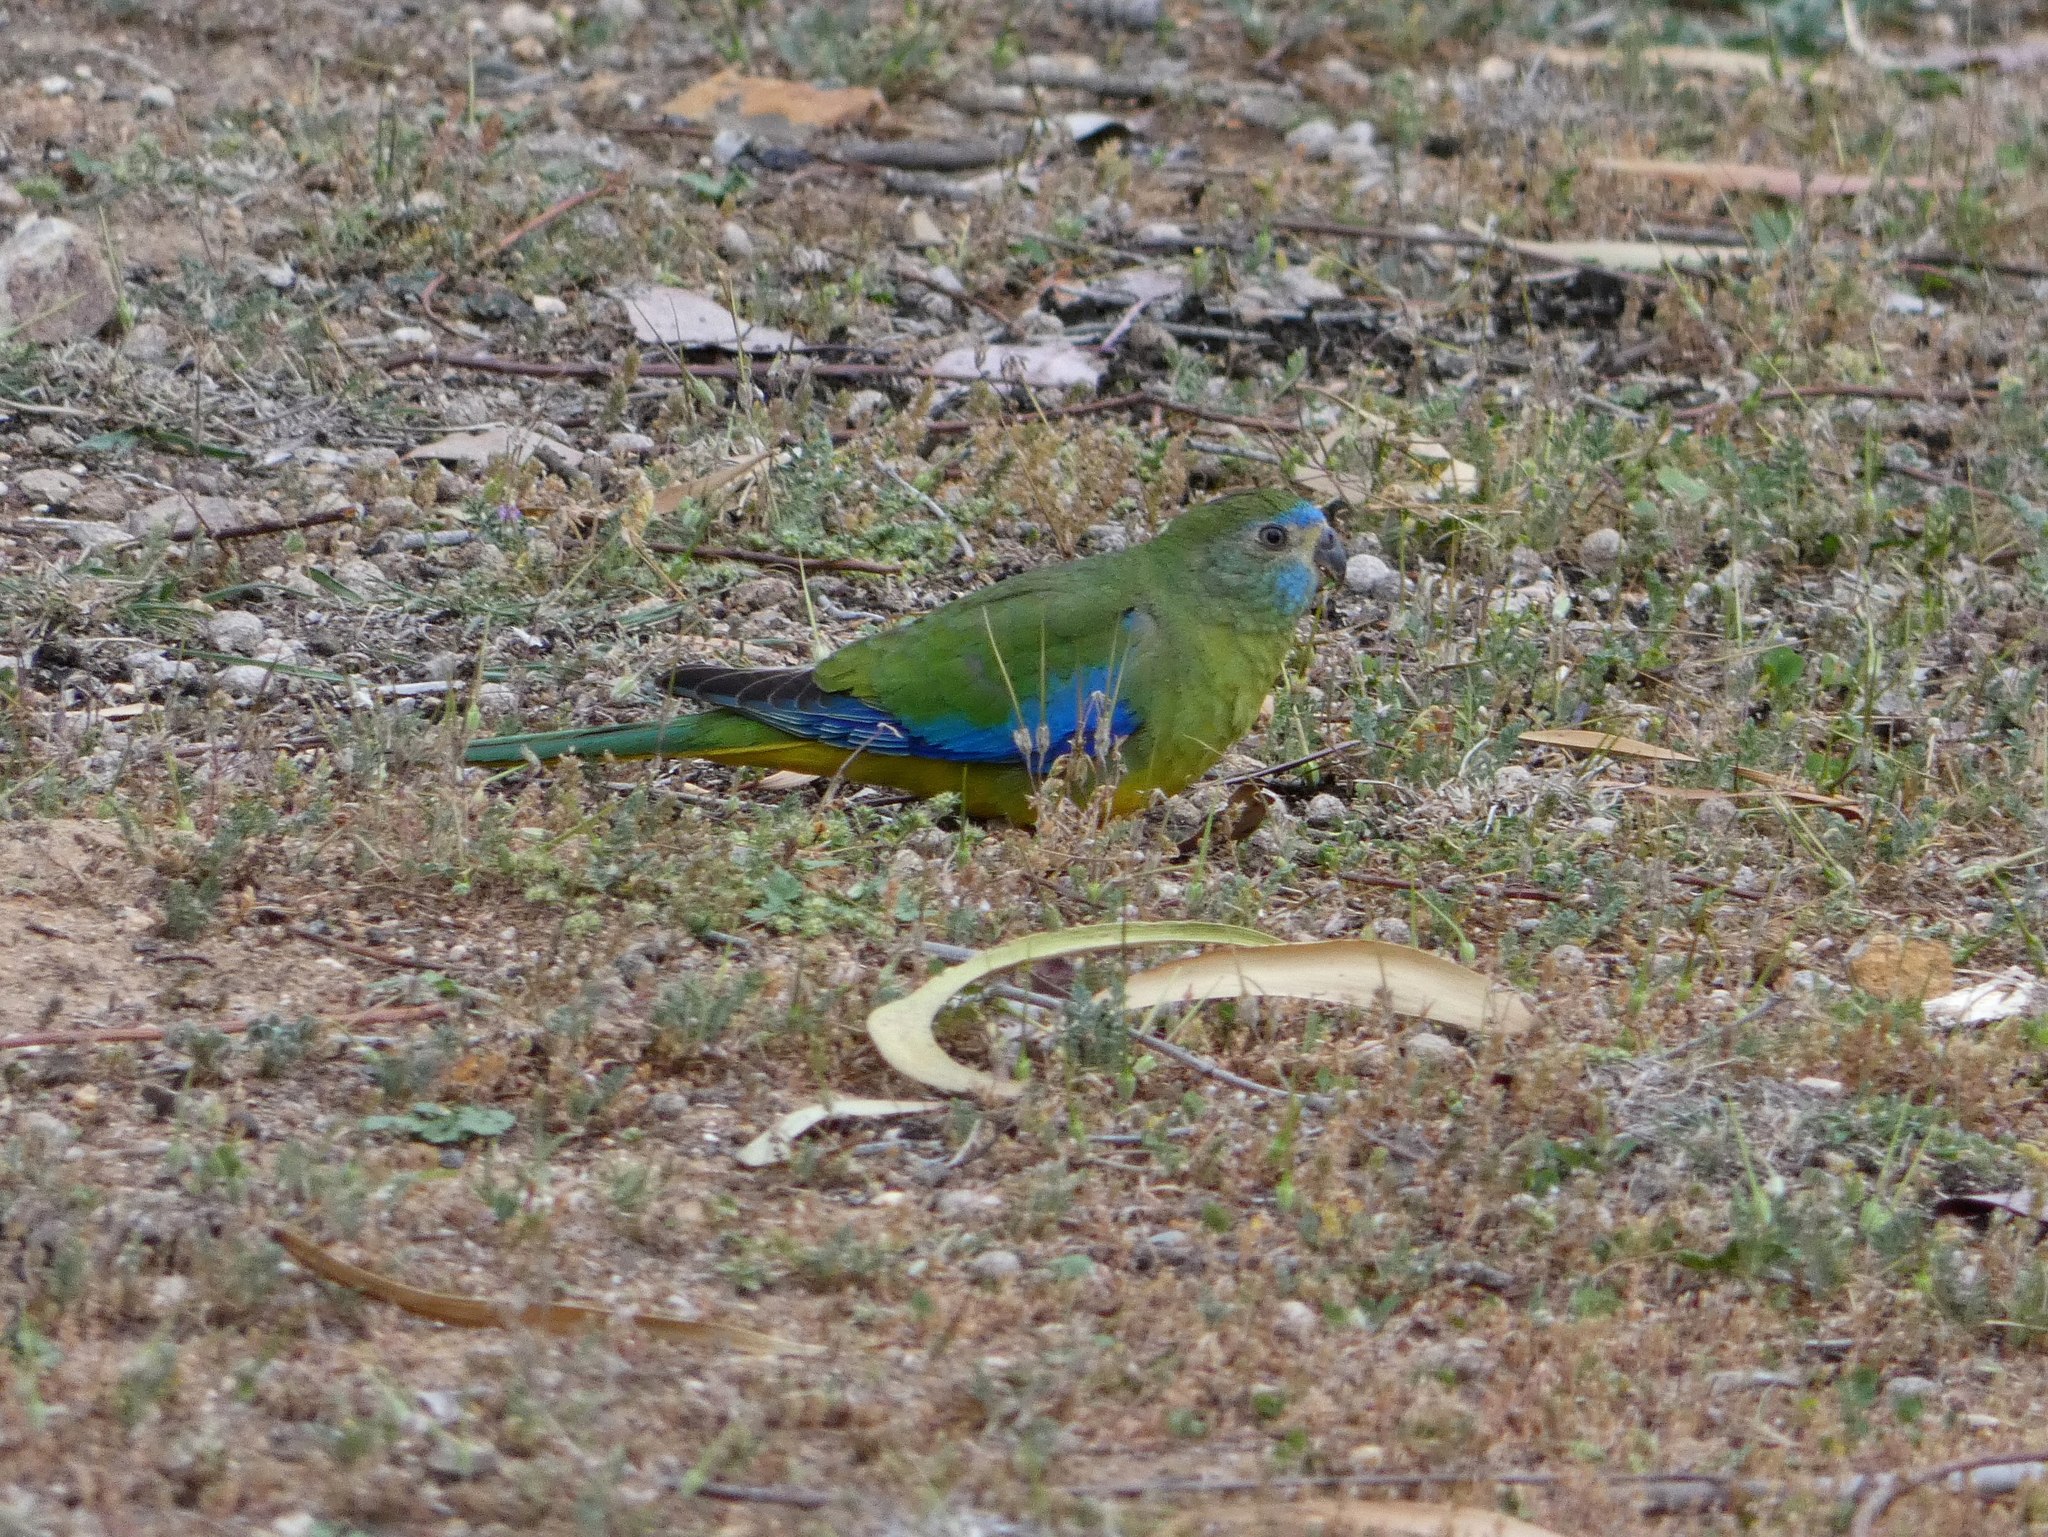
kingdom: Animalia
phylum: Chordata
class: Aves
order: Psittaciformes
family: Psittacidae
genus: Neophema
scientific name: Neophema pulchella
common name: Turquoise parrot
